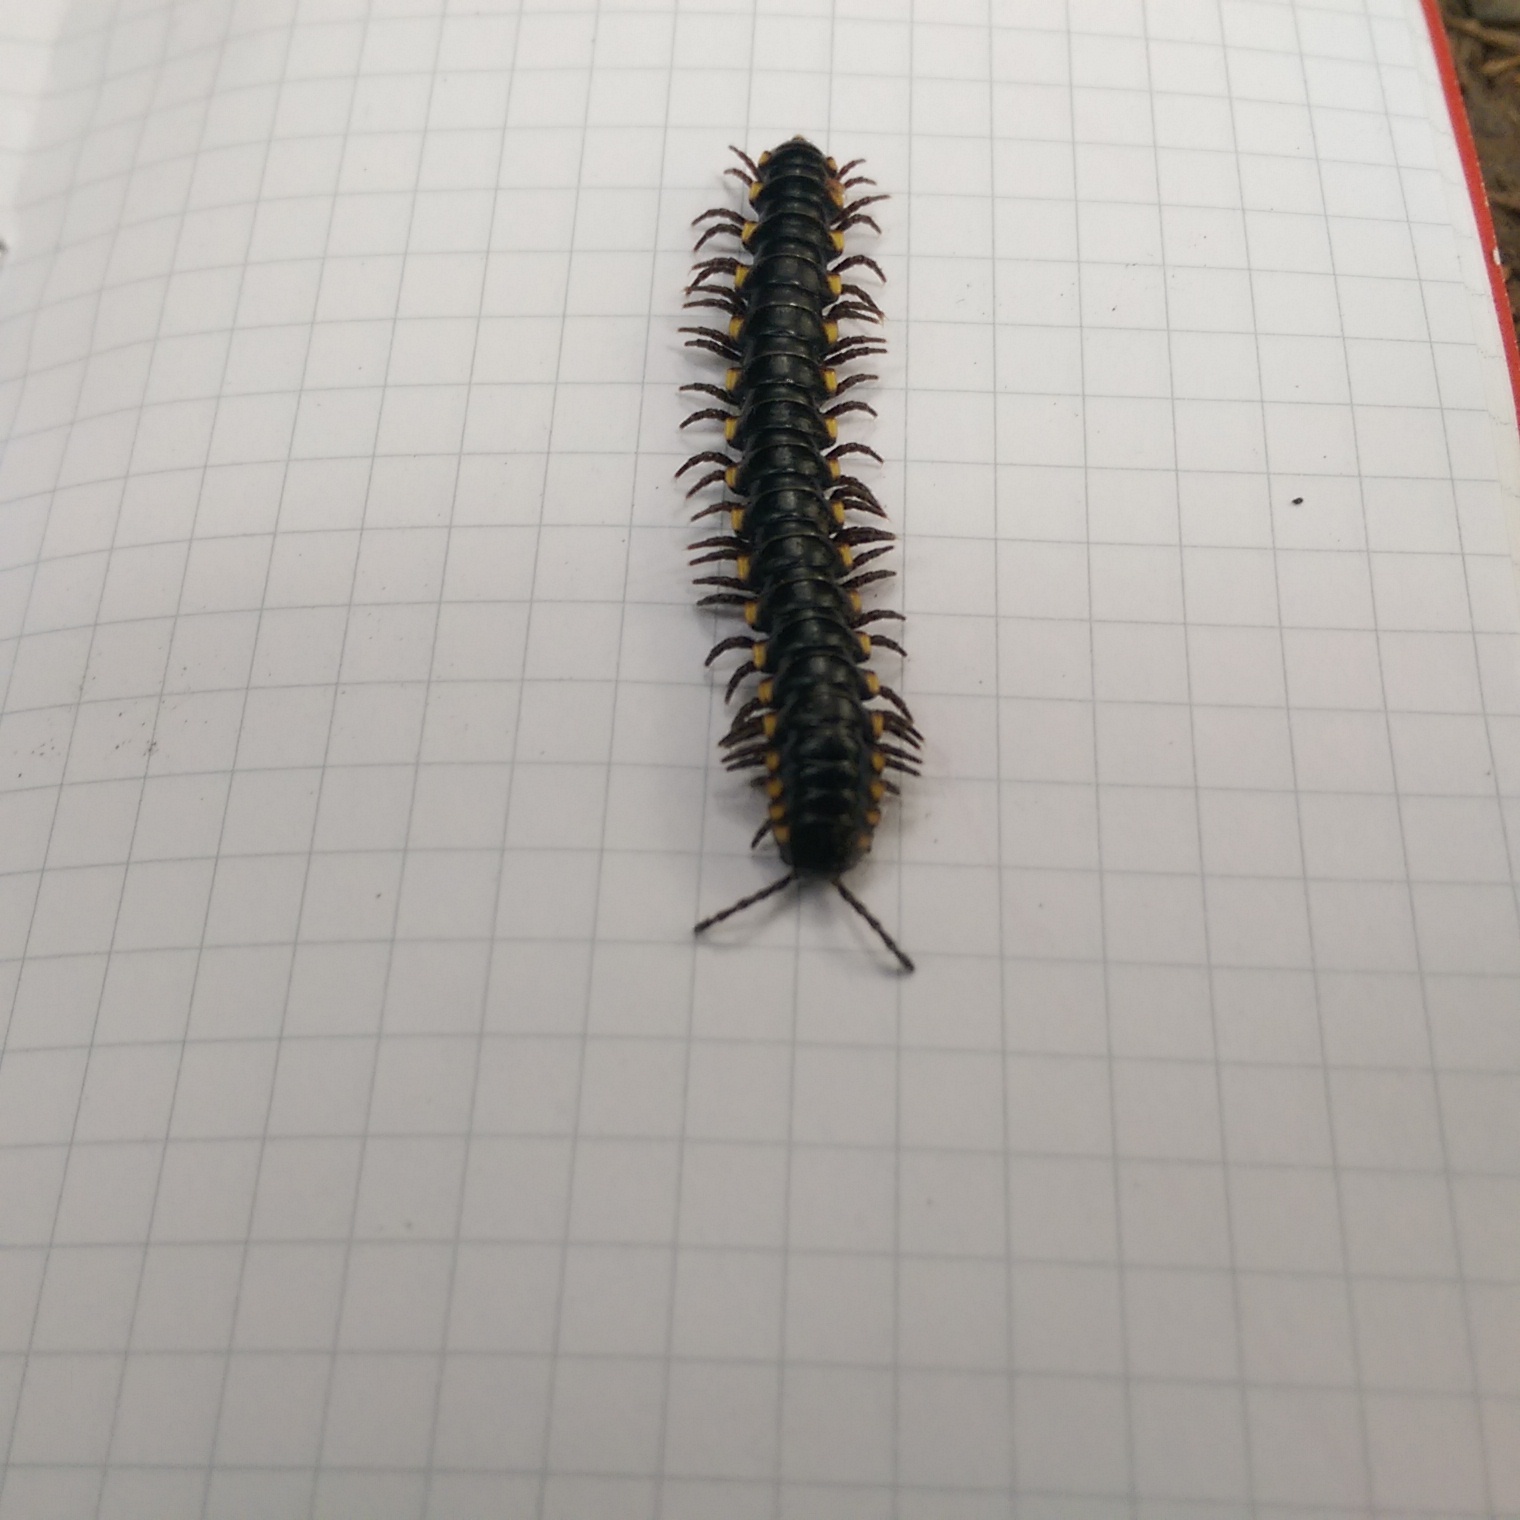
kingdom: Animalia
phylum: Arthropoda
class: Diplopoda
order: Polydesmida
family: Xystodesmidae
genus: Harpaphe
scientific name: Harpaphe haydeniana
